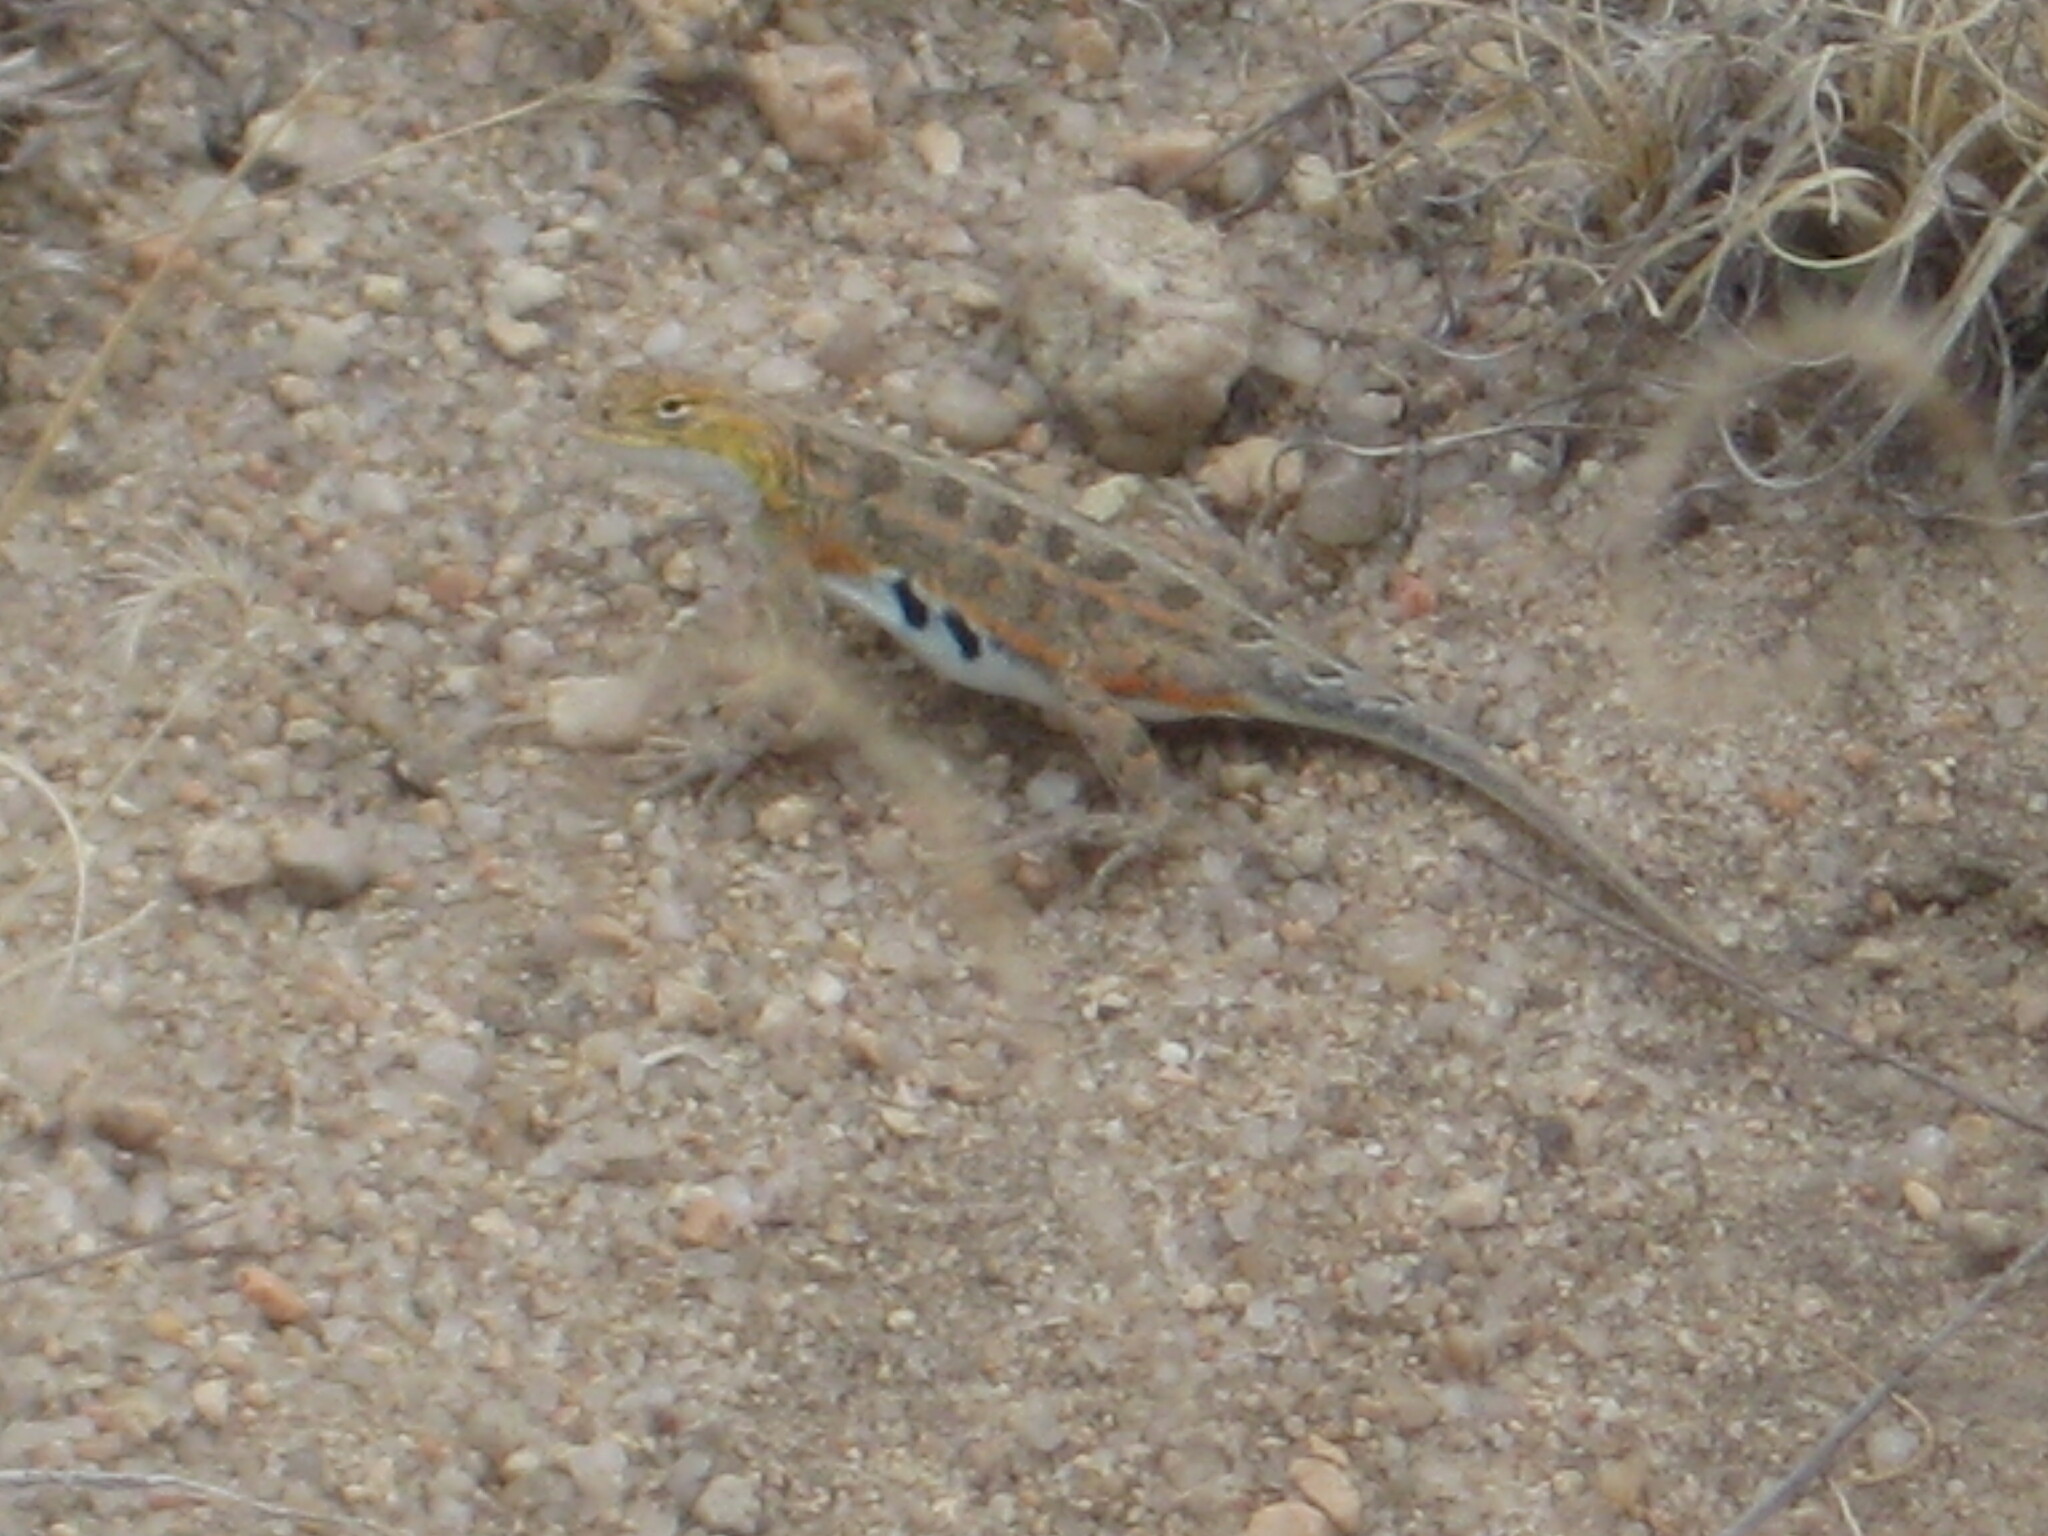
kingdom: Animalia
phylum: Chordata
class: Squamata
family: Phrynosomatidae
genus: Holbrookia
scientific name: Holbrookia maculata
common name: Lesser earless lizard
